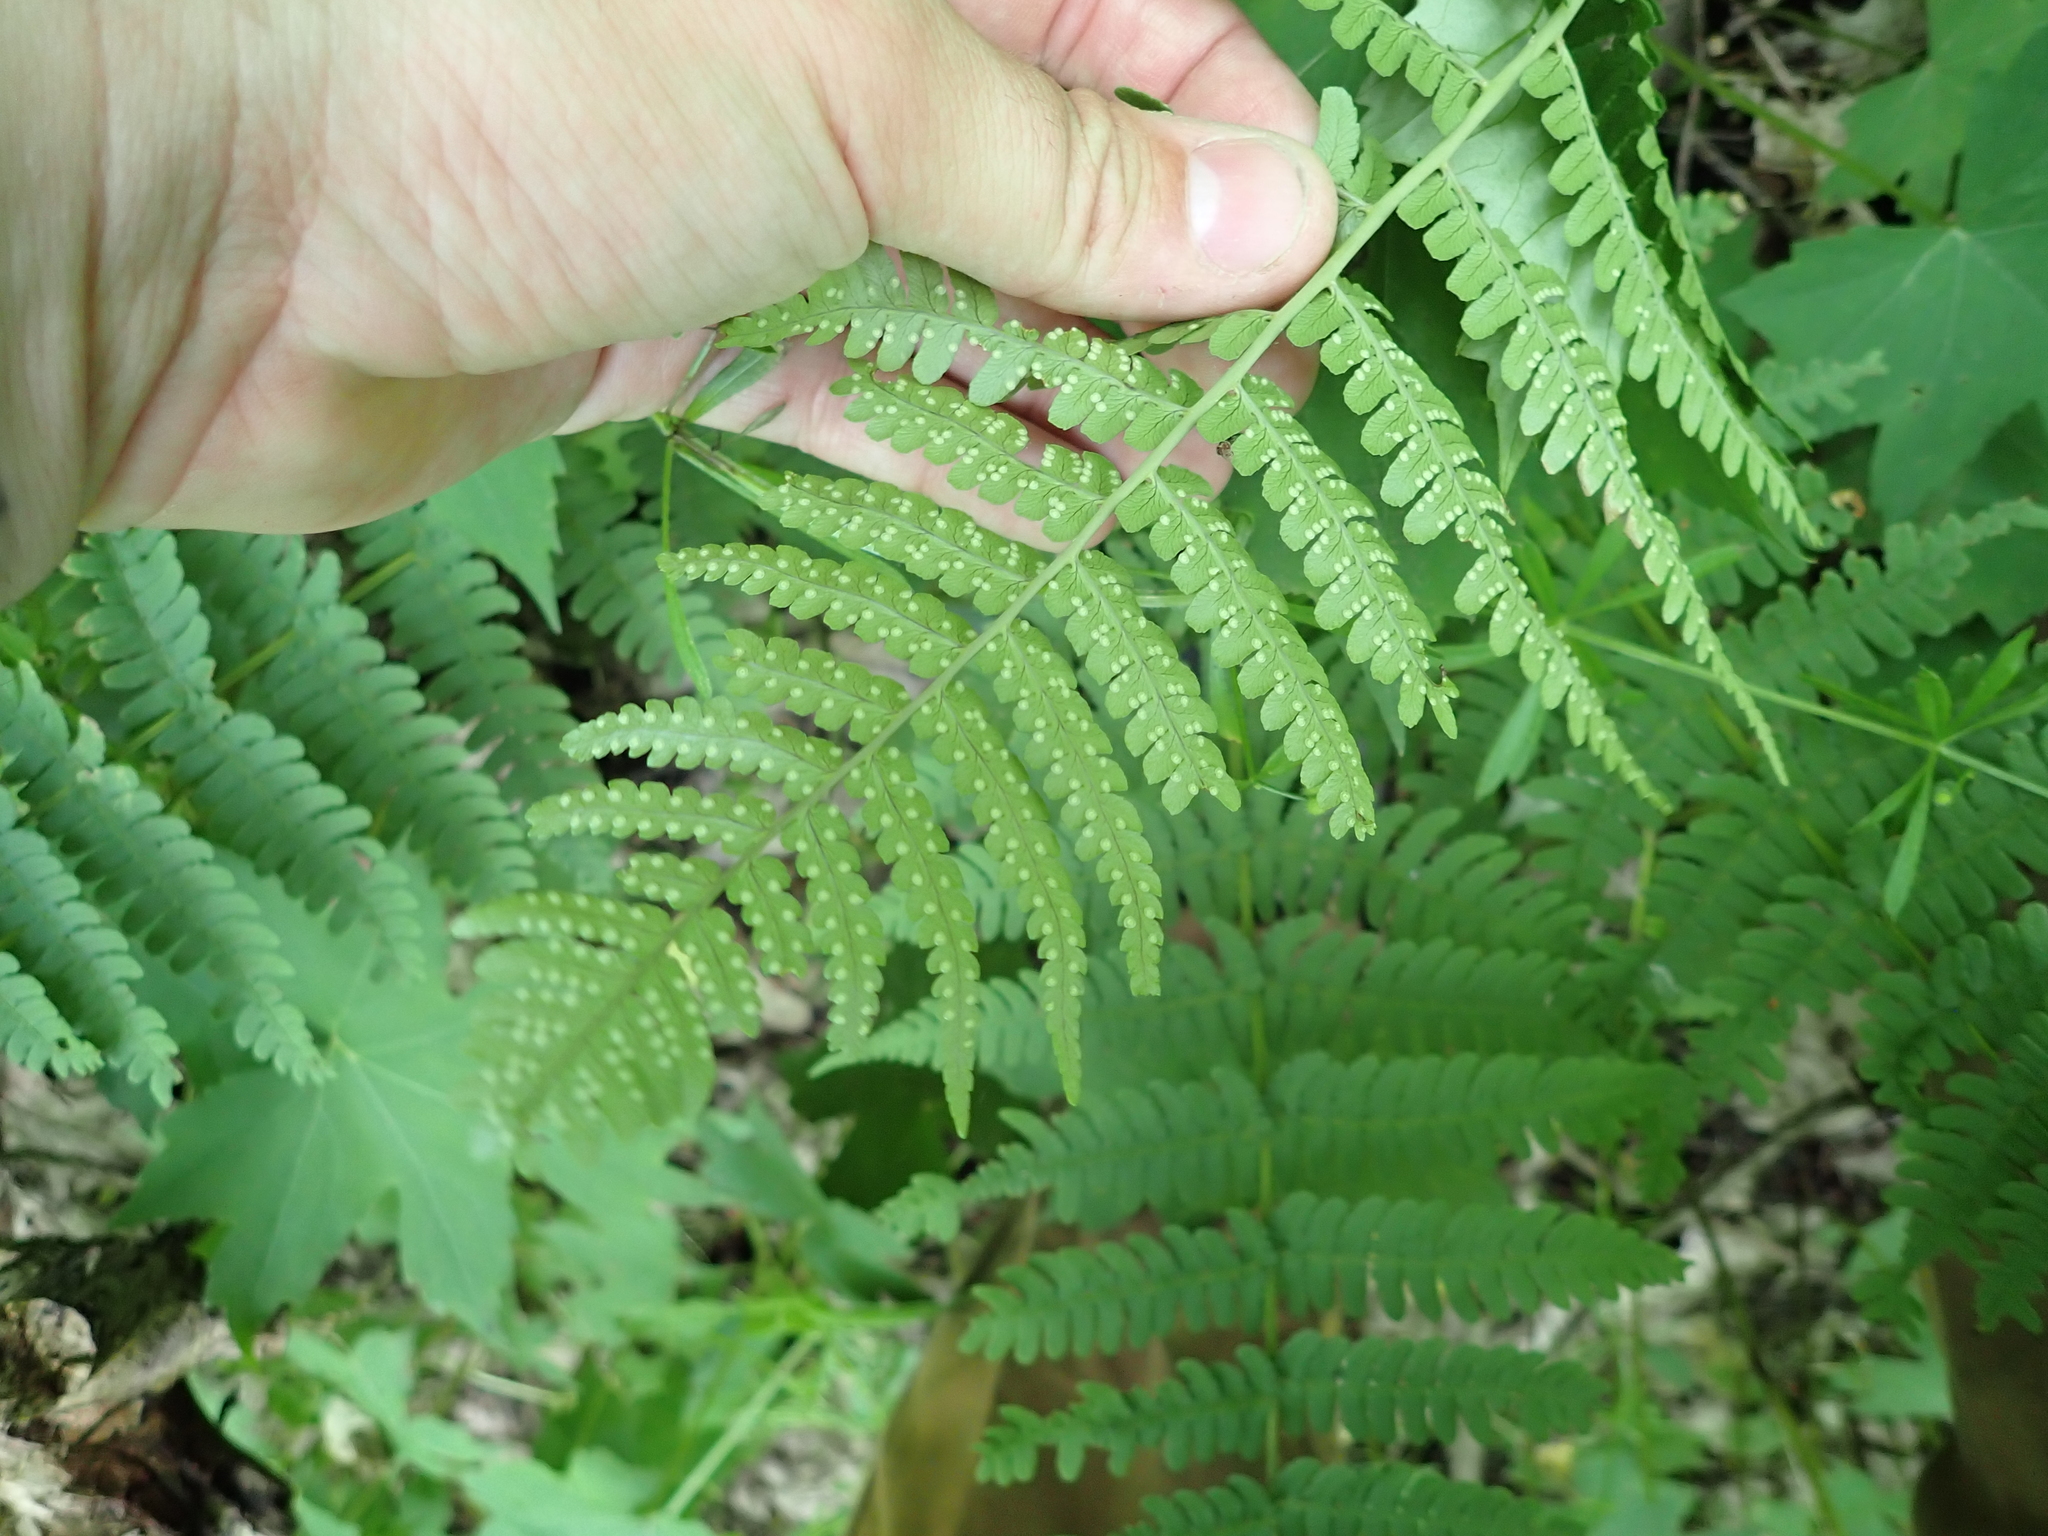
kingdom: Plantae
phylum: Tracheophyta
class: Polypodiopsida
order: Polypodiales
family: Dryopteridaceae
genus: Dryopteris
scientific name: Dryopteris marginalis
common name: Marginal wood fern
